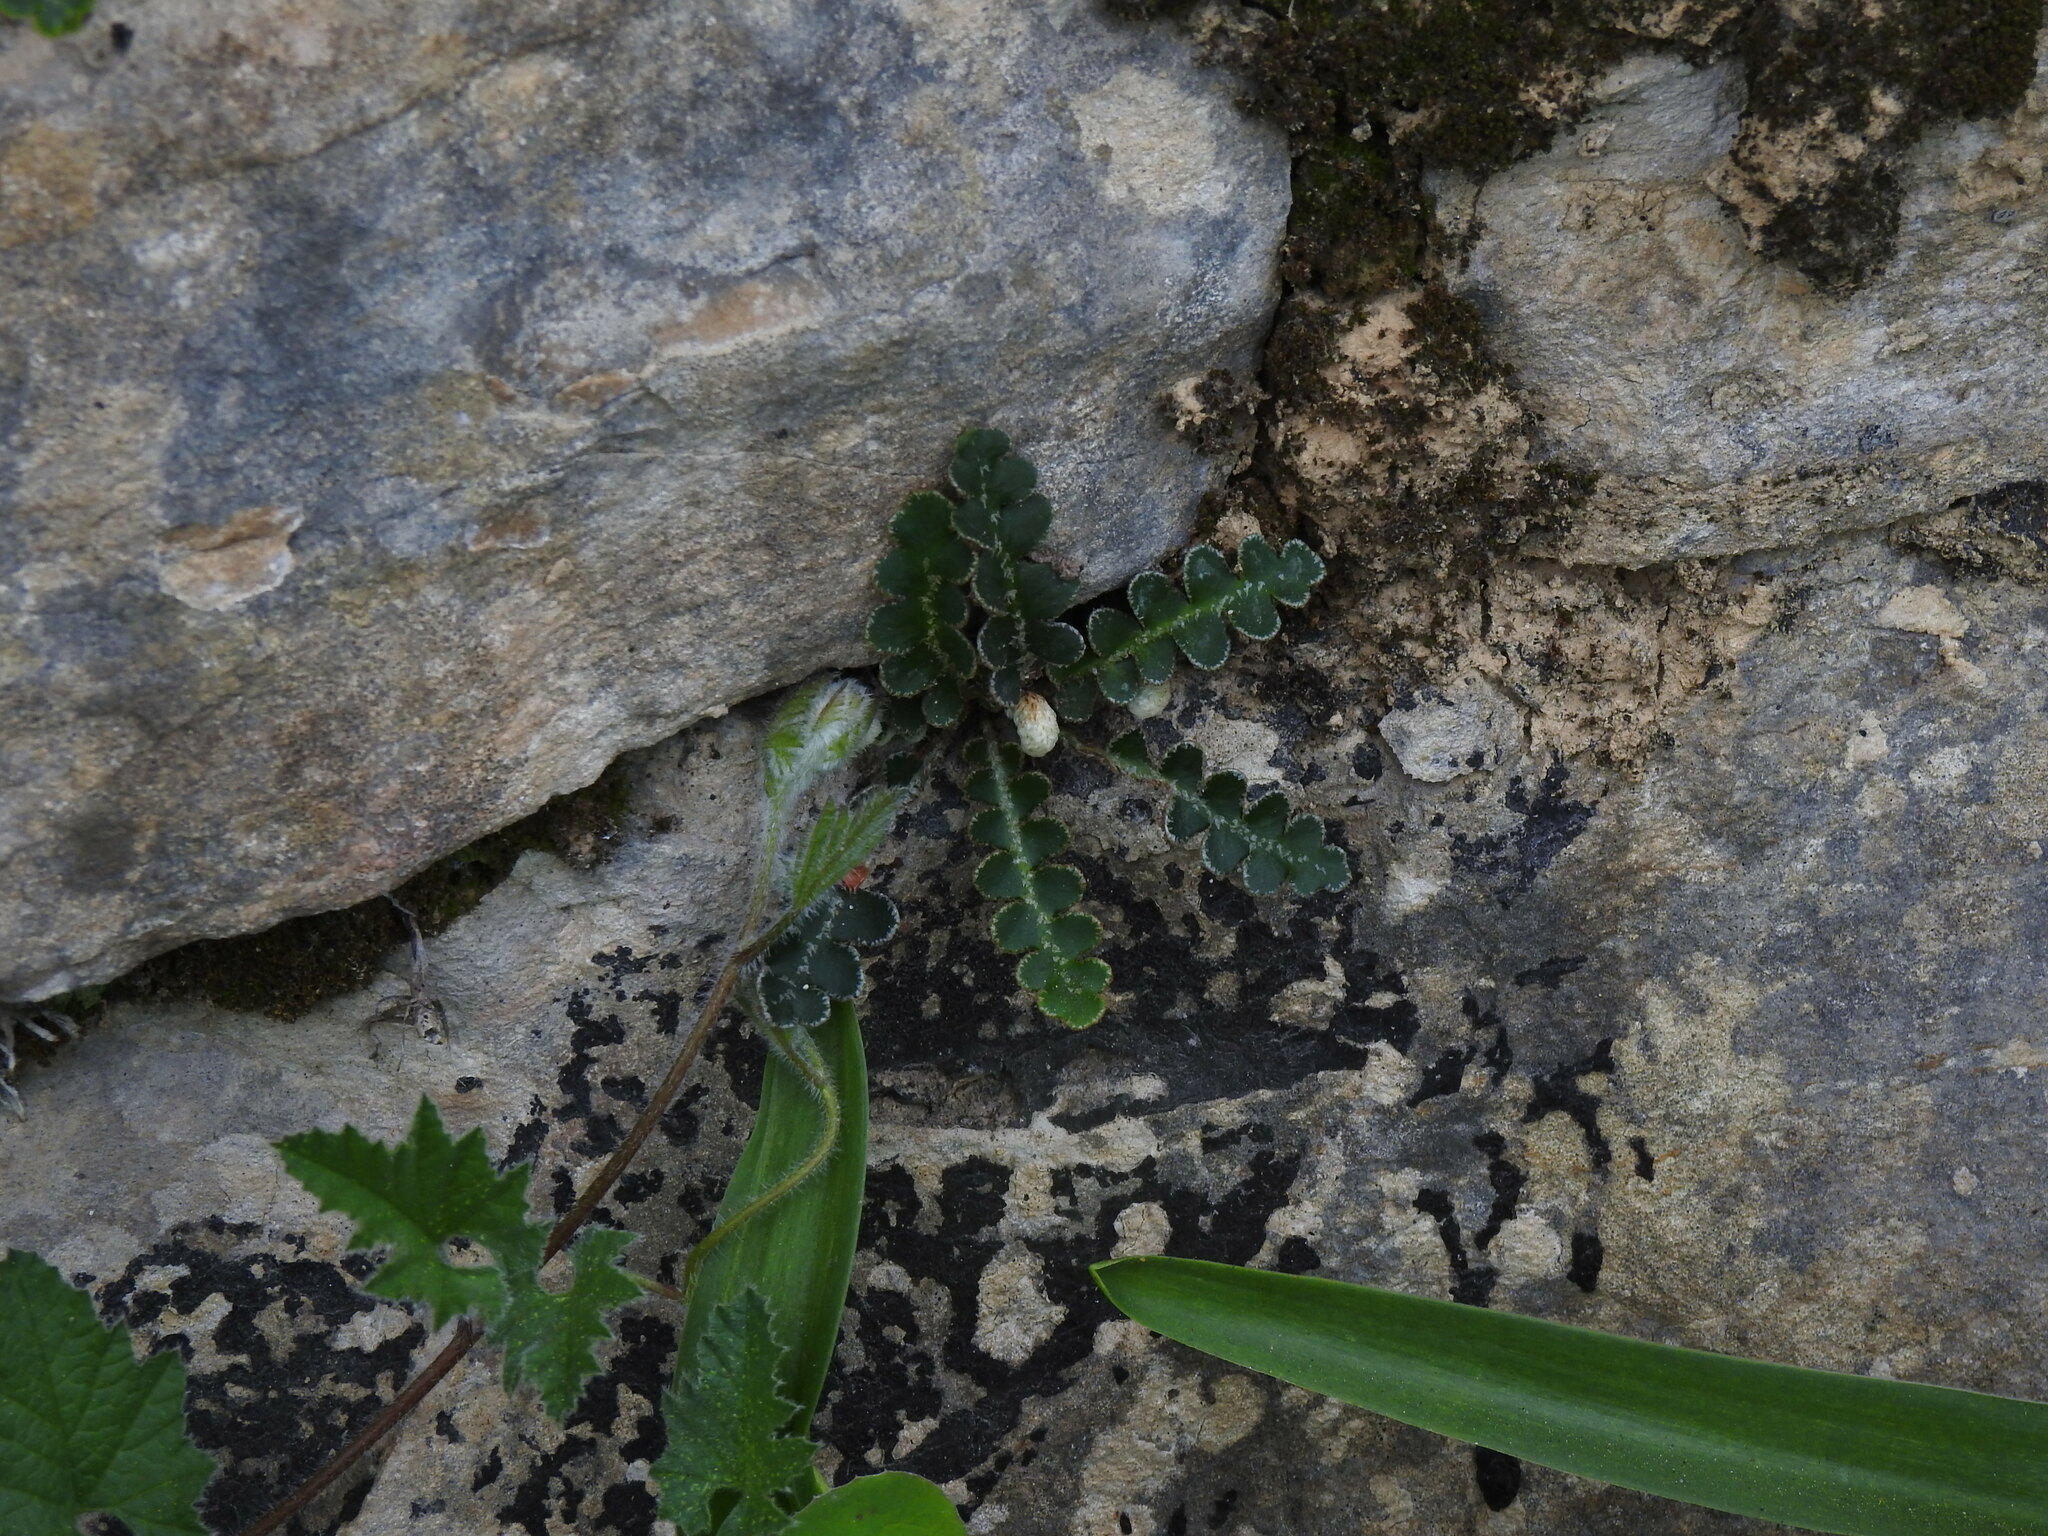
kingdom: Plantae
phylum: Tracheophyta
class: Polypodiopsida
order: Polypodiales
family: Aspleniaceae
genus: Asplenium
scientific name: Asplenium ceterach
